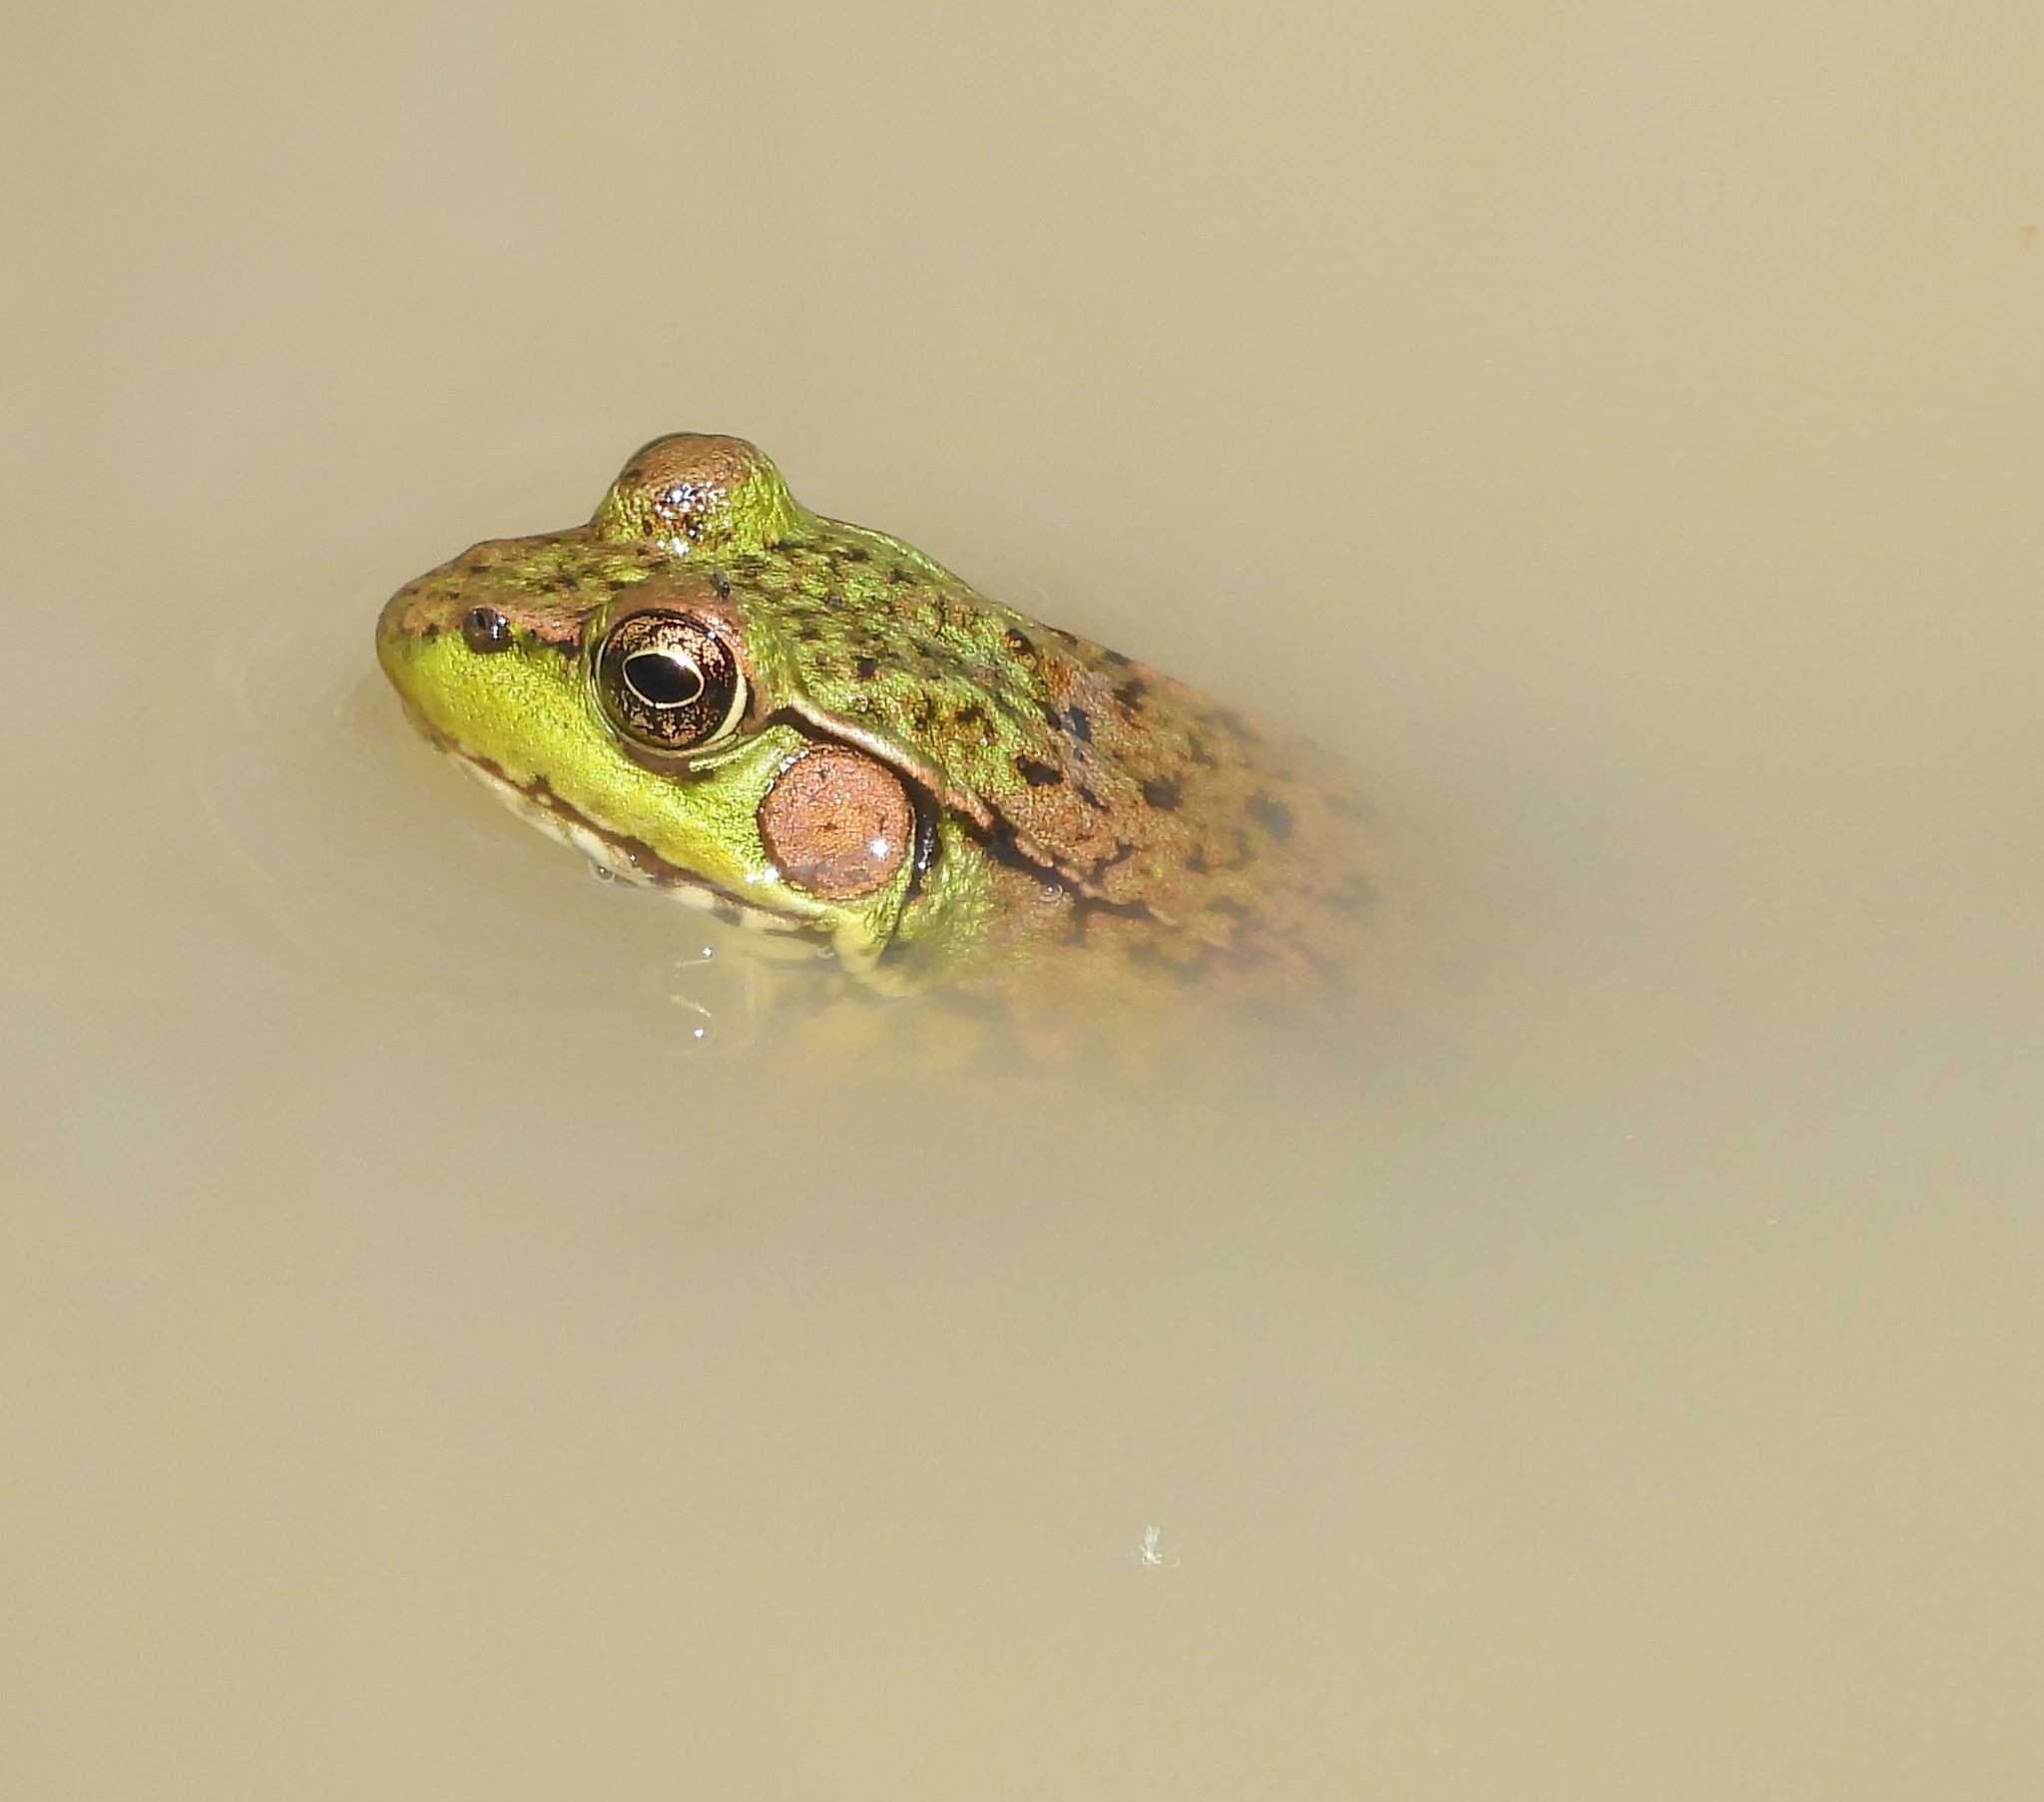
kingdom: Animalia
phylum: Chordata
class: Amphibia
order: Anura
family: Ranidae
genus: Lithobates
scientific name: Lithobates clamitans
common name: Green frog
